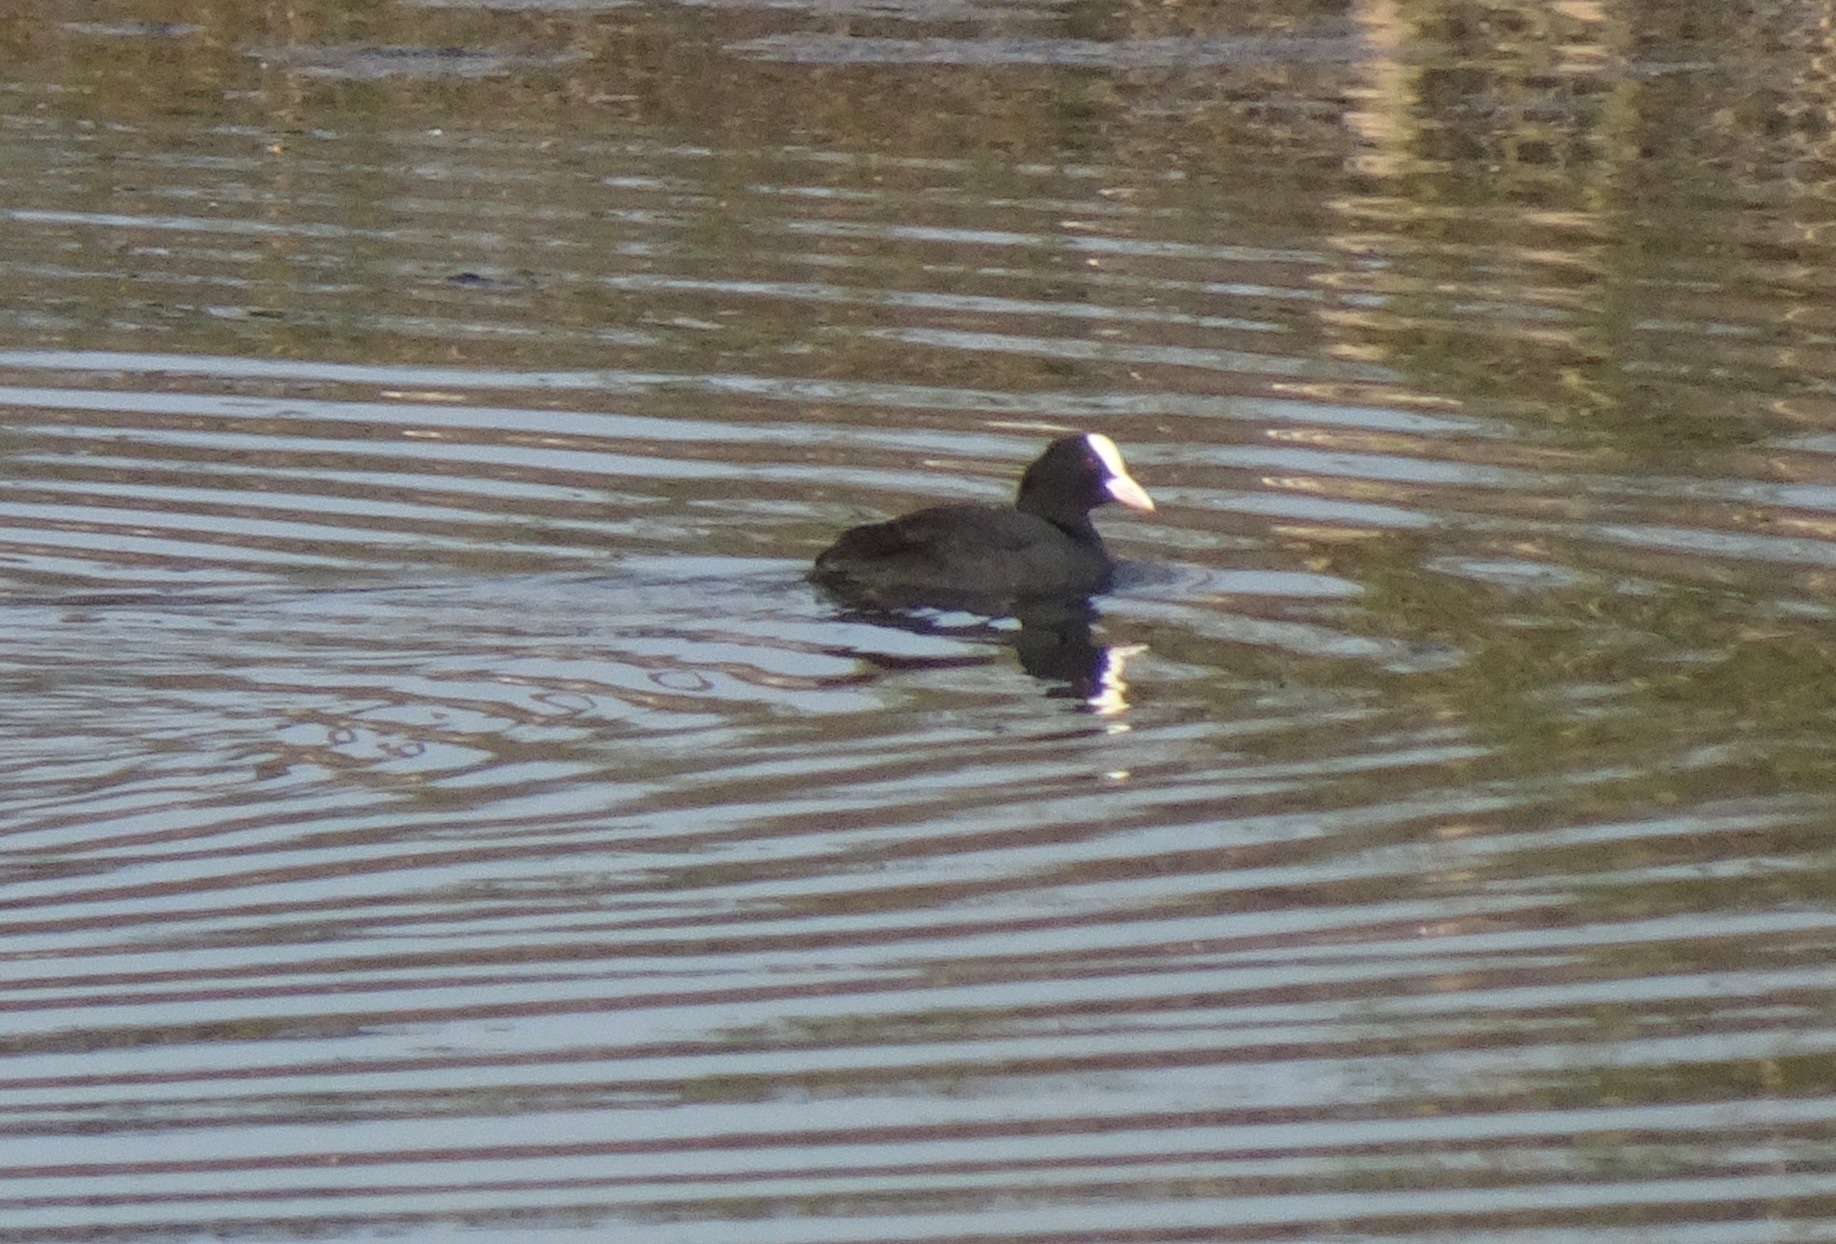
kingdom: Animalia
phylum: Chordata
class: Aves
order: Gruiformes
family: Rallidae
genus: Fulica
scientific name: Fulica atra
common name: Eurasian coot
